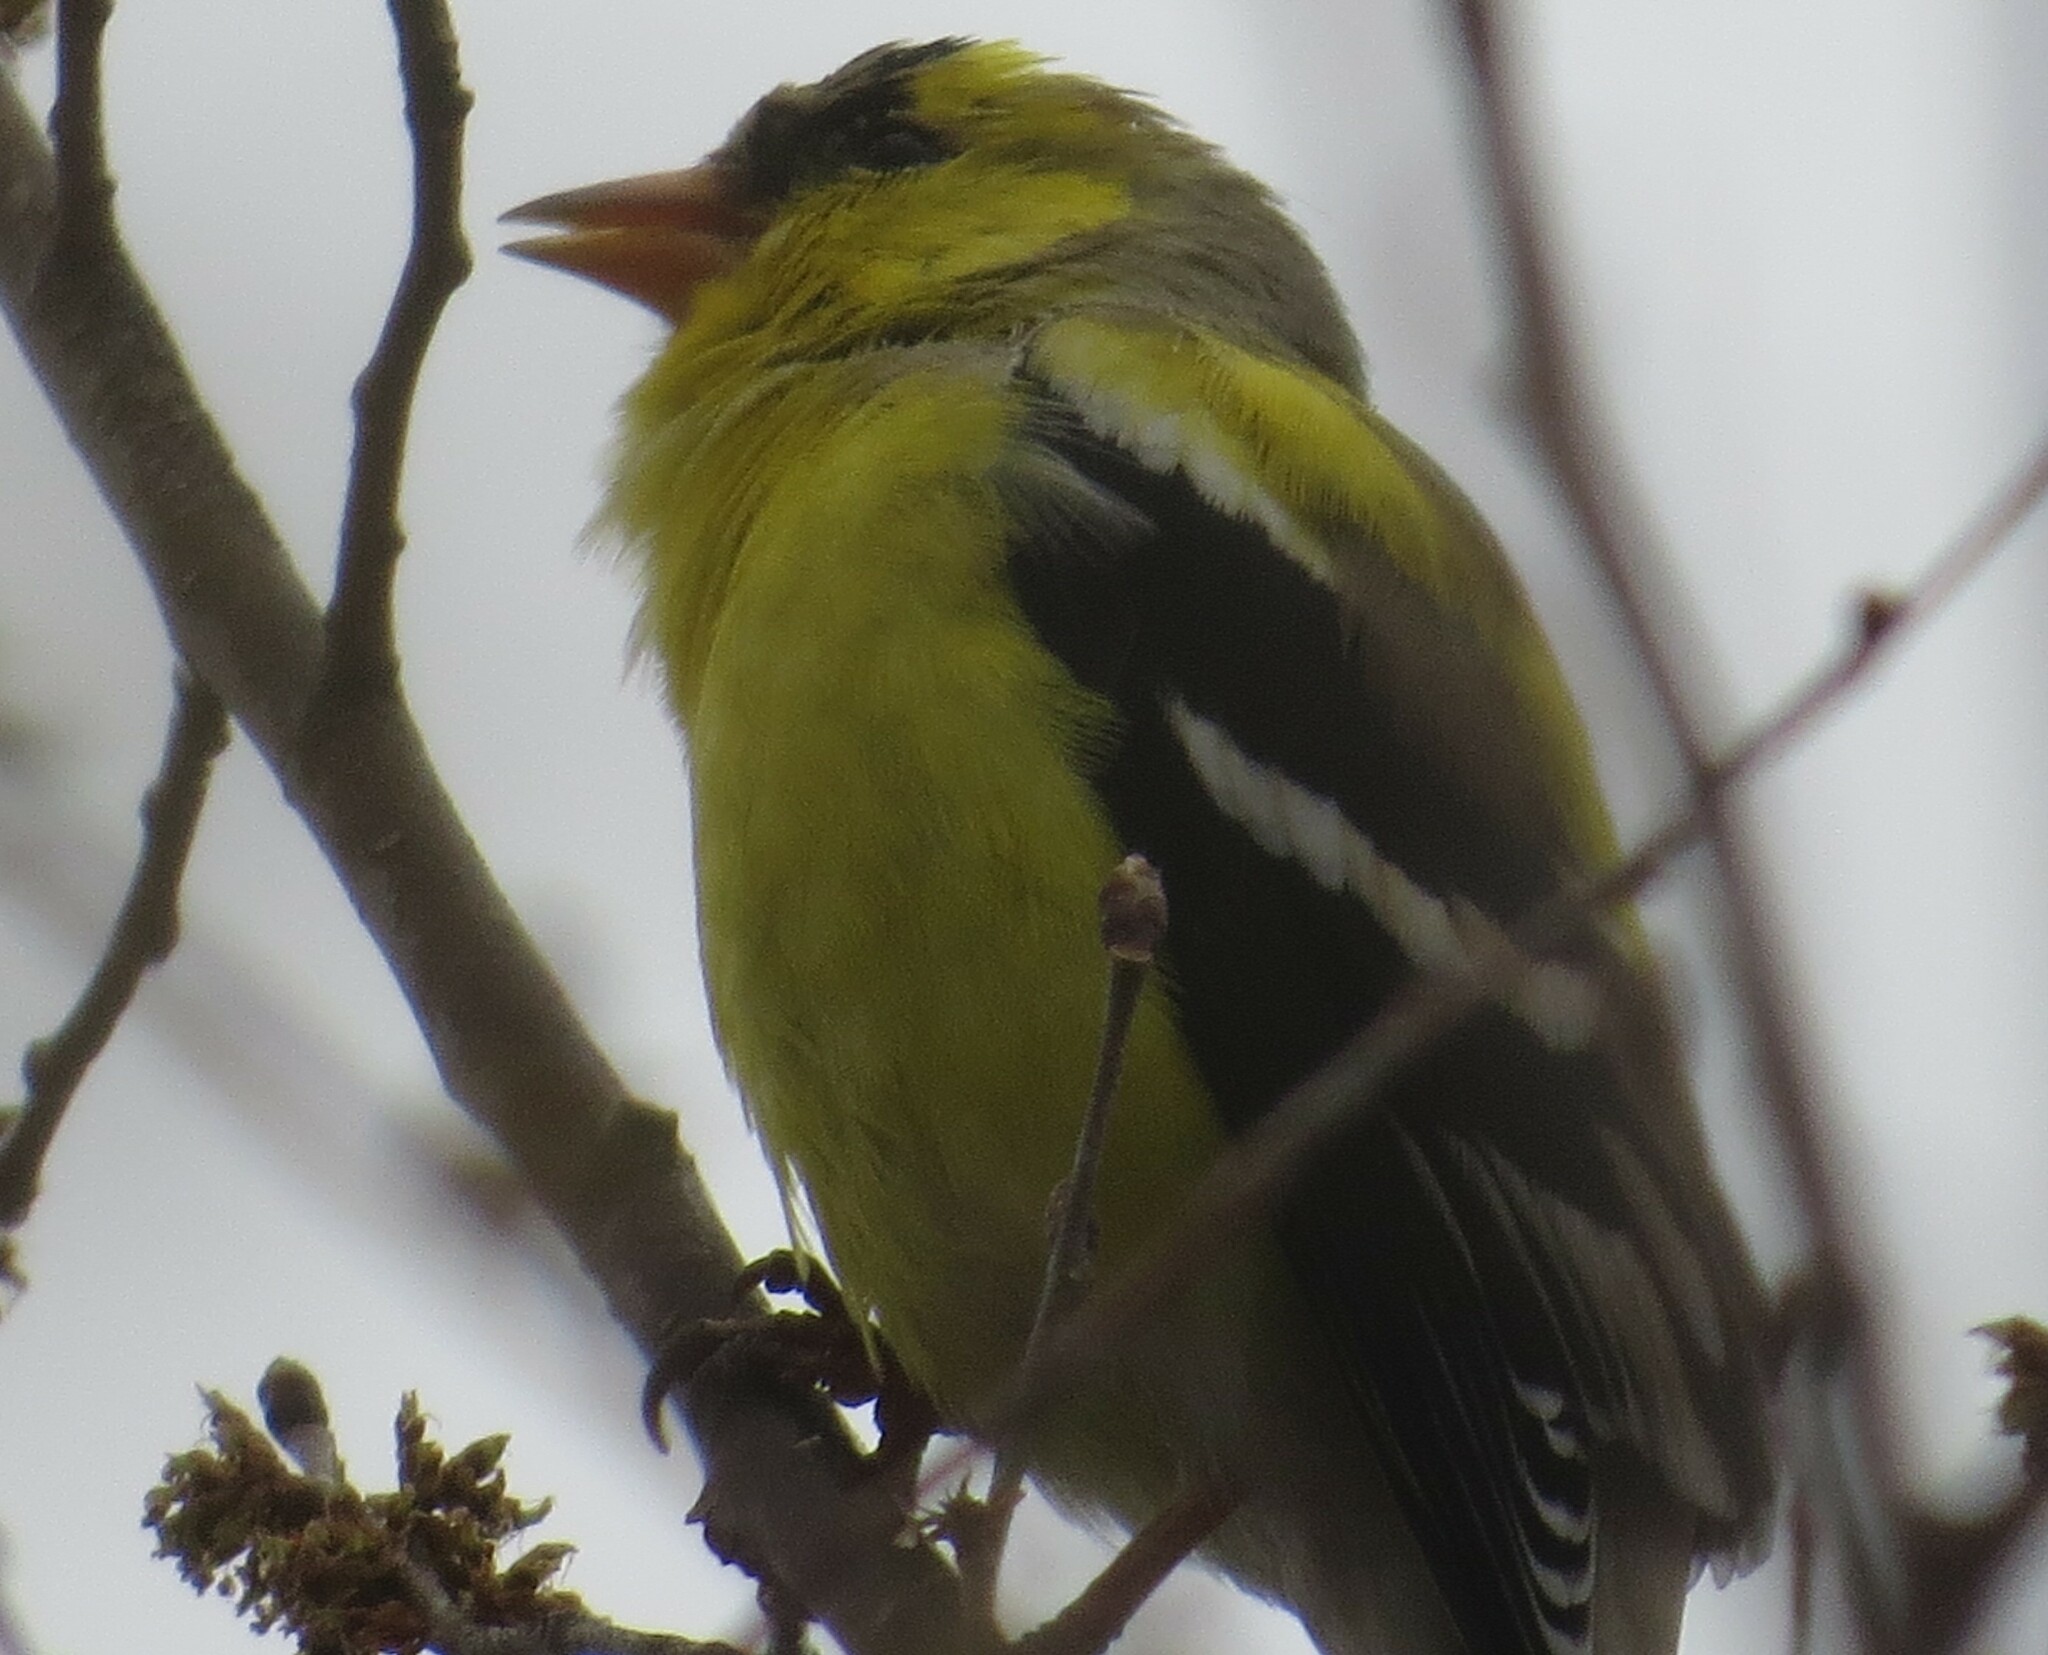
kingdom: Animalia
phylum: Chordata
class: Aves
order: Passeriformes
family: Fringillidae
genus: Spinus
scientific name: Spinus tristis
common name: American goldfinch
